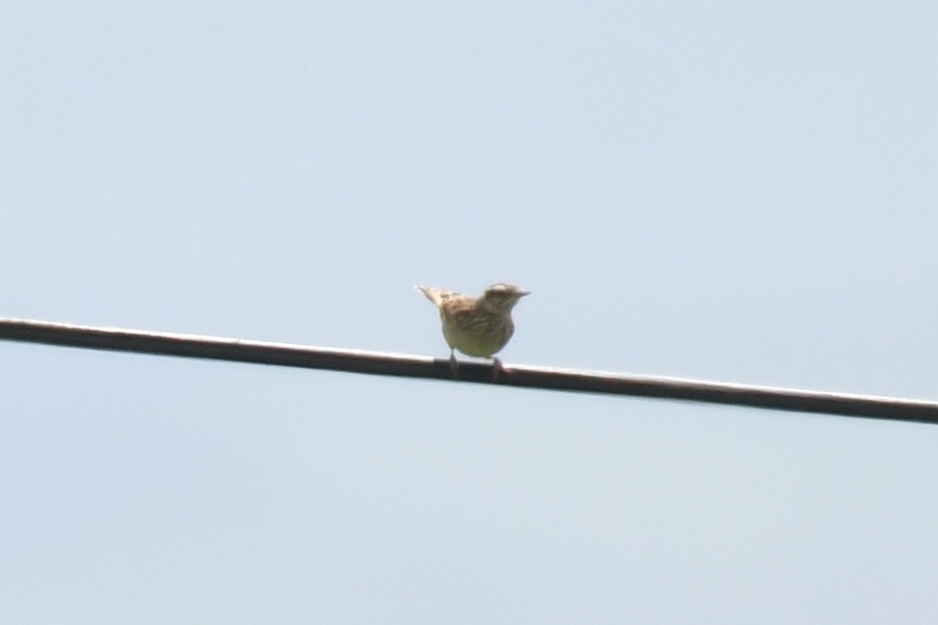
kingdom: Animalia
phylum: Chordata
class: Aves
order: Passeriformes
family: Alaudidae
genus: Lullula
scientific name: Lullula arborea
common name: Woodlark
